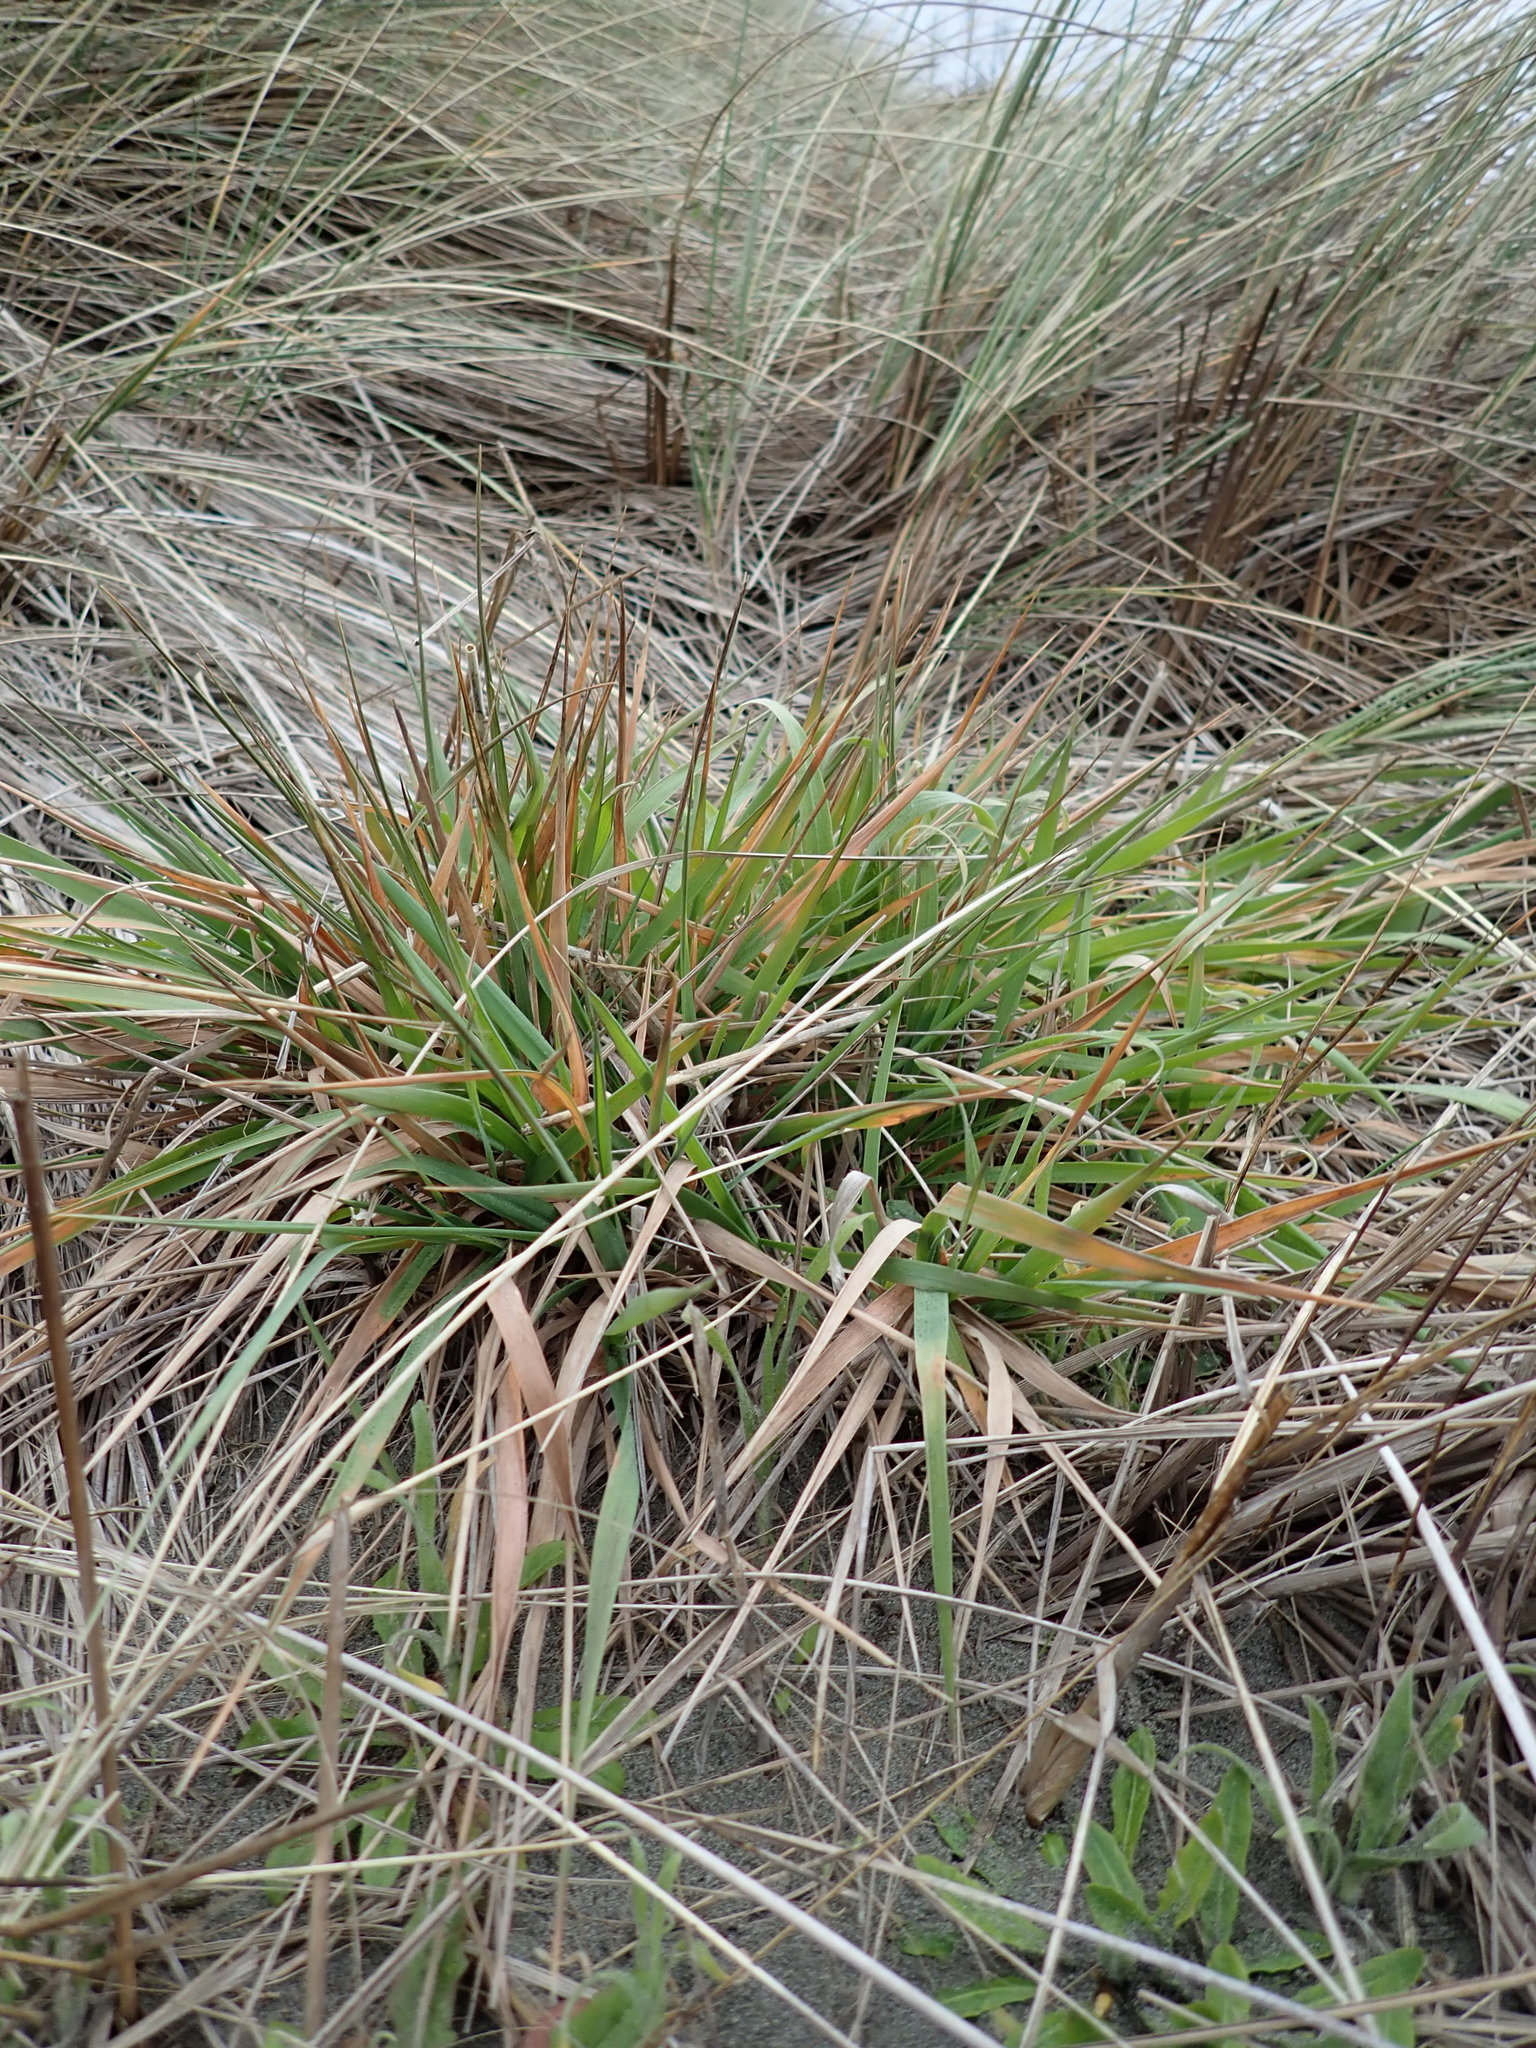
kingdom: Plantae
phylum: Tracheophyta
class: Liliopsida
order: Poales
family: Poaceae
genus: Lachnagrostis
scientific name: Lachnagrostis billardierei
